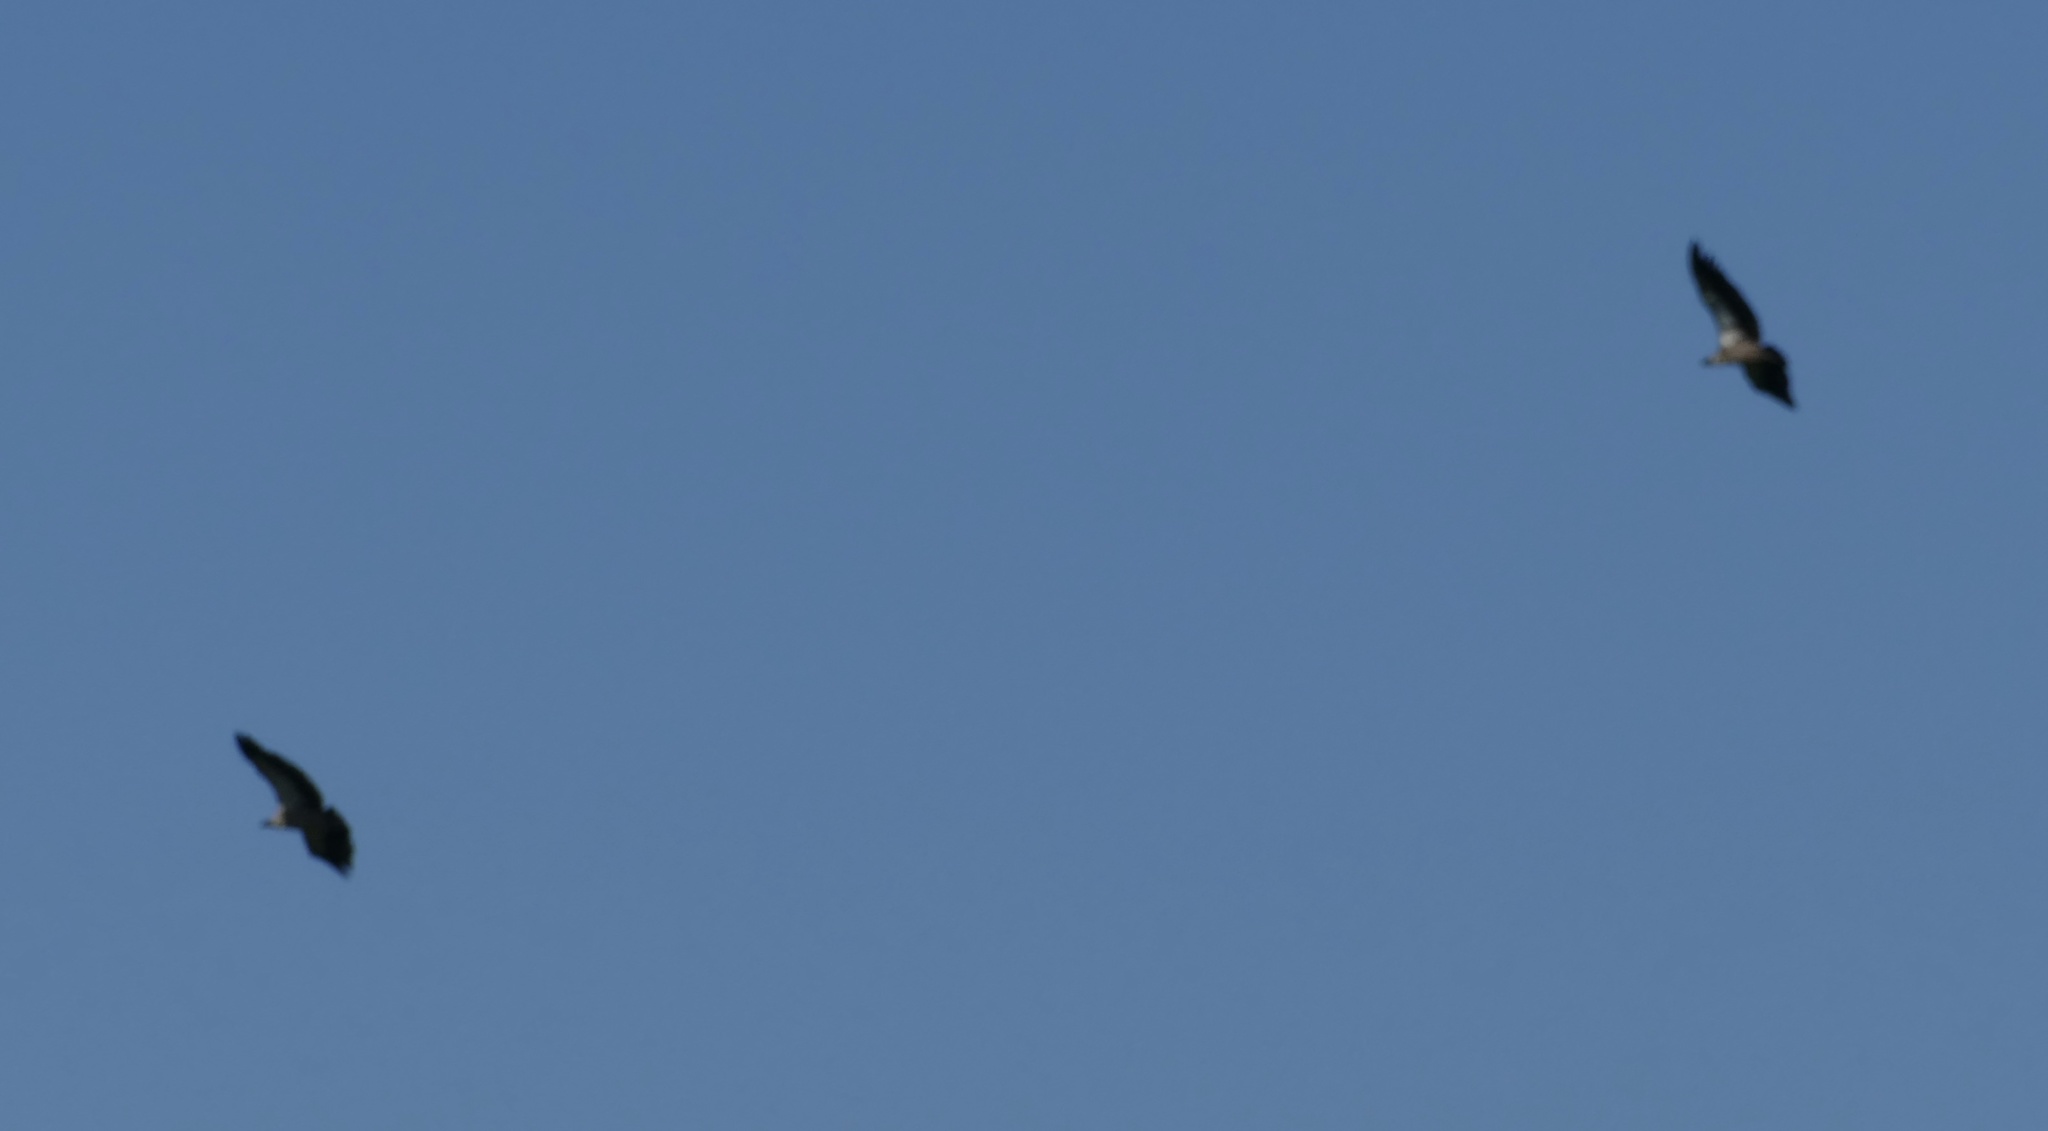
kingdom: Animalia
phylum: Chordata
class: Aves
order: Accipitriformes
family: Accipitridae
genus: Gyps
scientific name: Gyps africanus
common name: White-backed vulture
